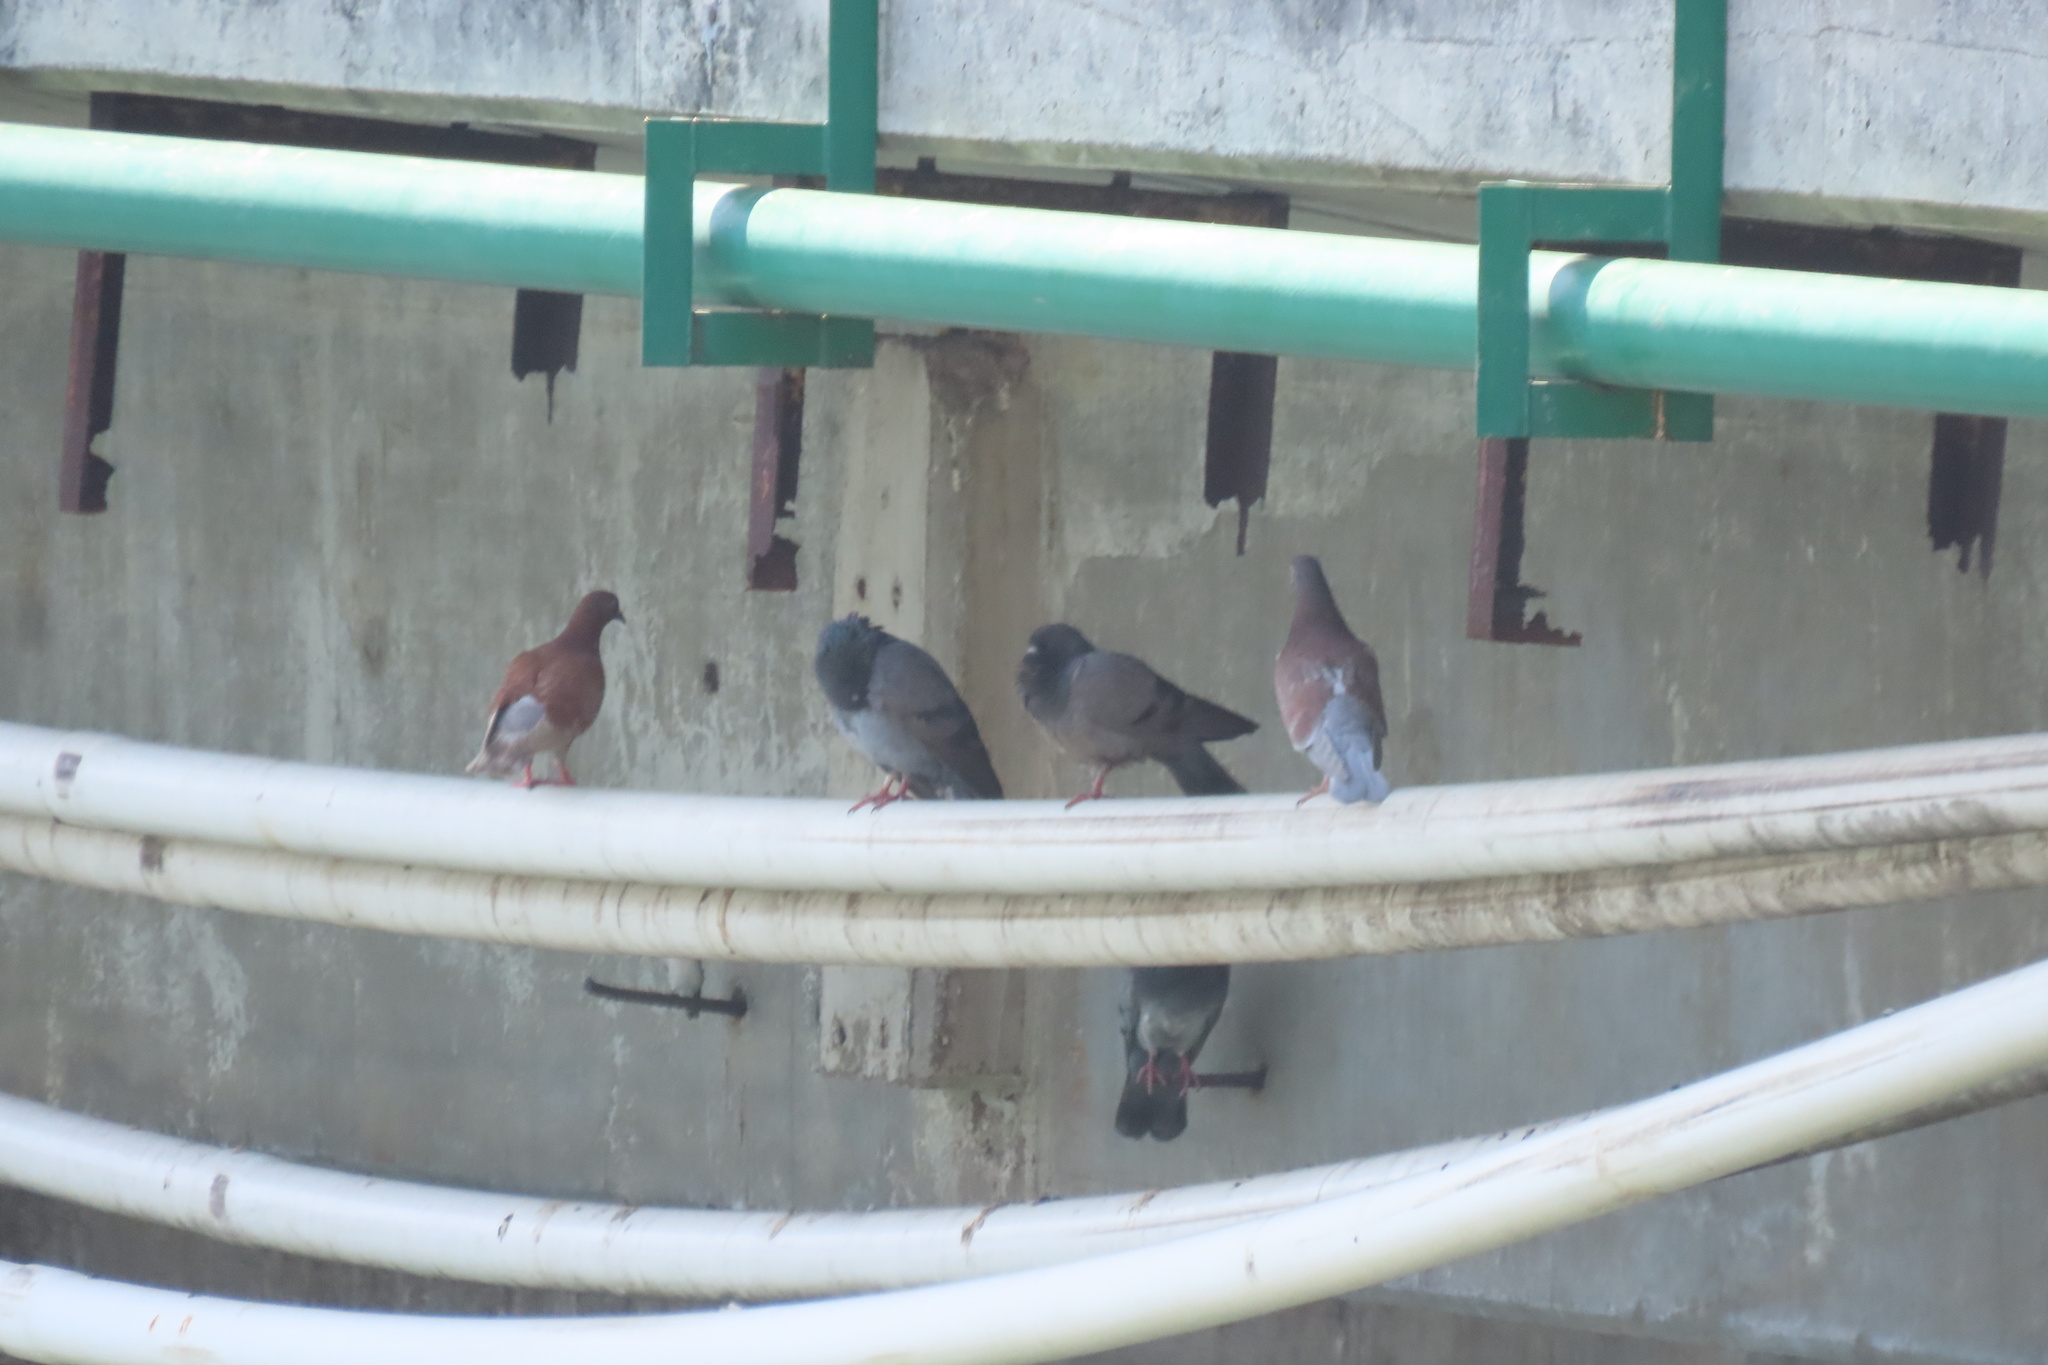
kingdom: Animalia
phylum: Chordata
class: Aves
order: Columbiformes
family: Columbidae
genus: Columba
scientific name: Columba livia
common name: Rock pigeon
